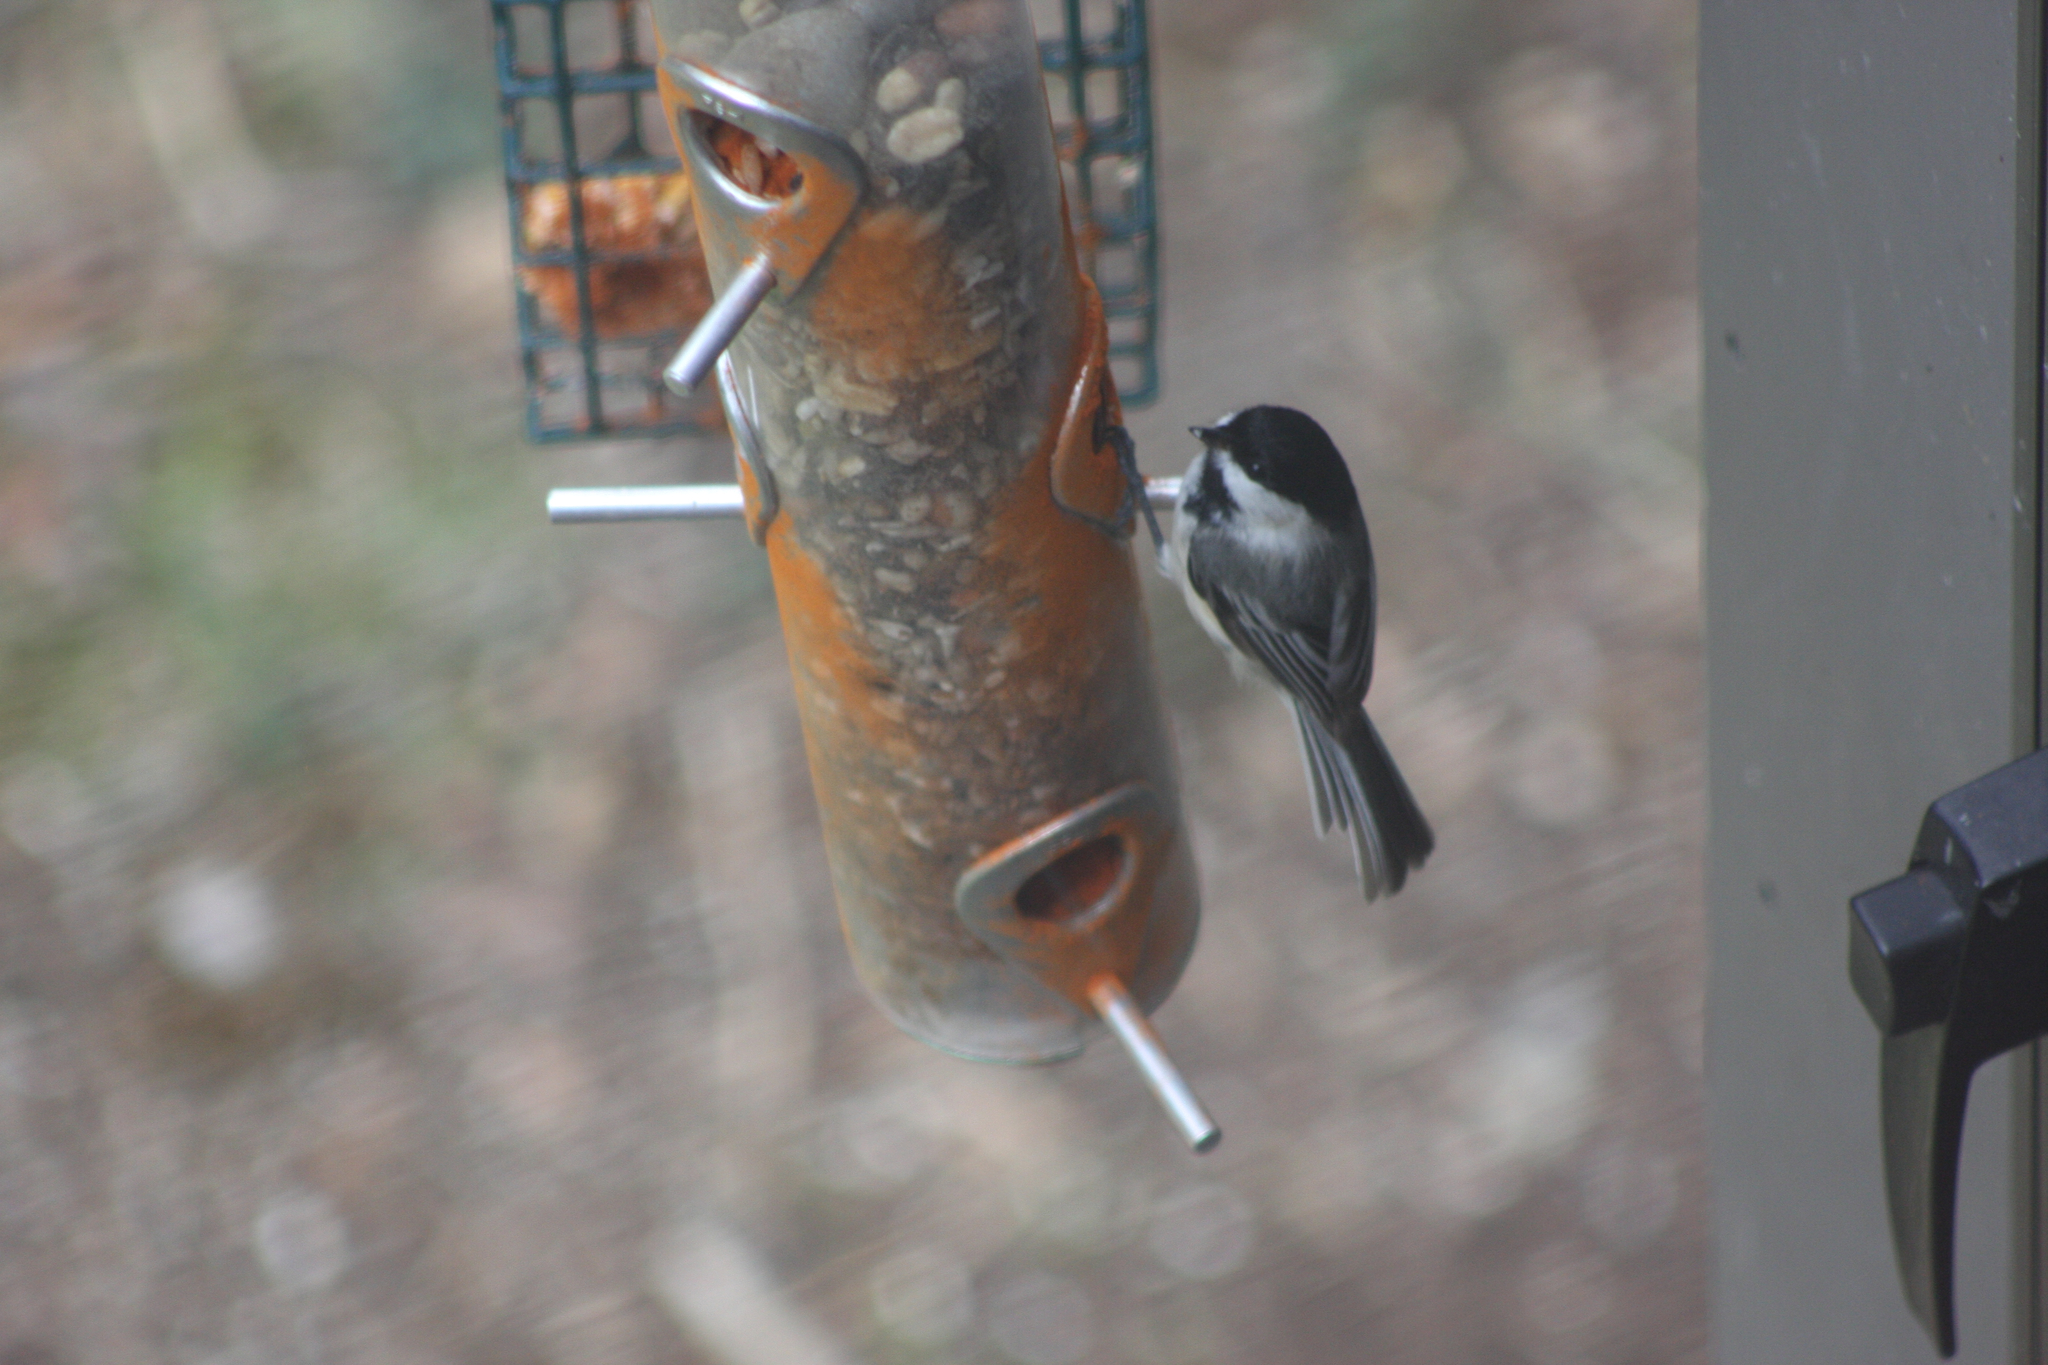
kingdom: Animalia
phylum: Chordata
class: Aves
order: Passeriformes
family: Paridae
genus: Poecile
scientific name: Poecile atricapillus
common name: Black-capped chickadee
